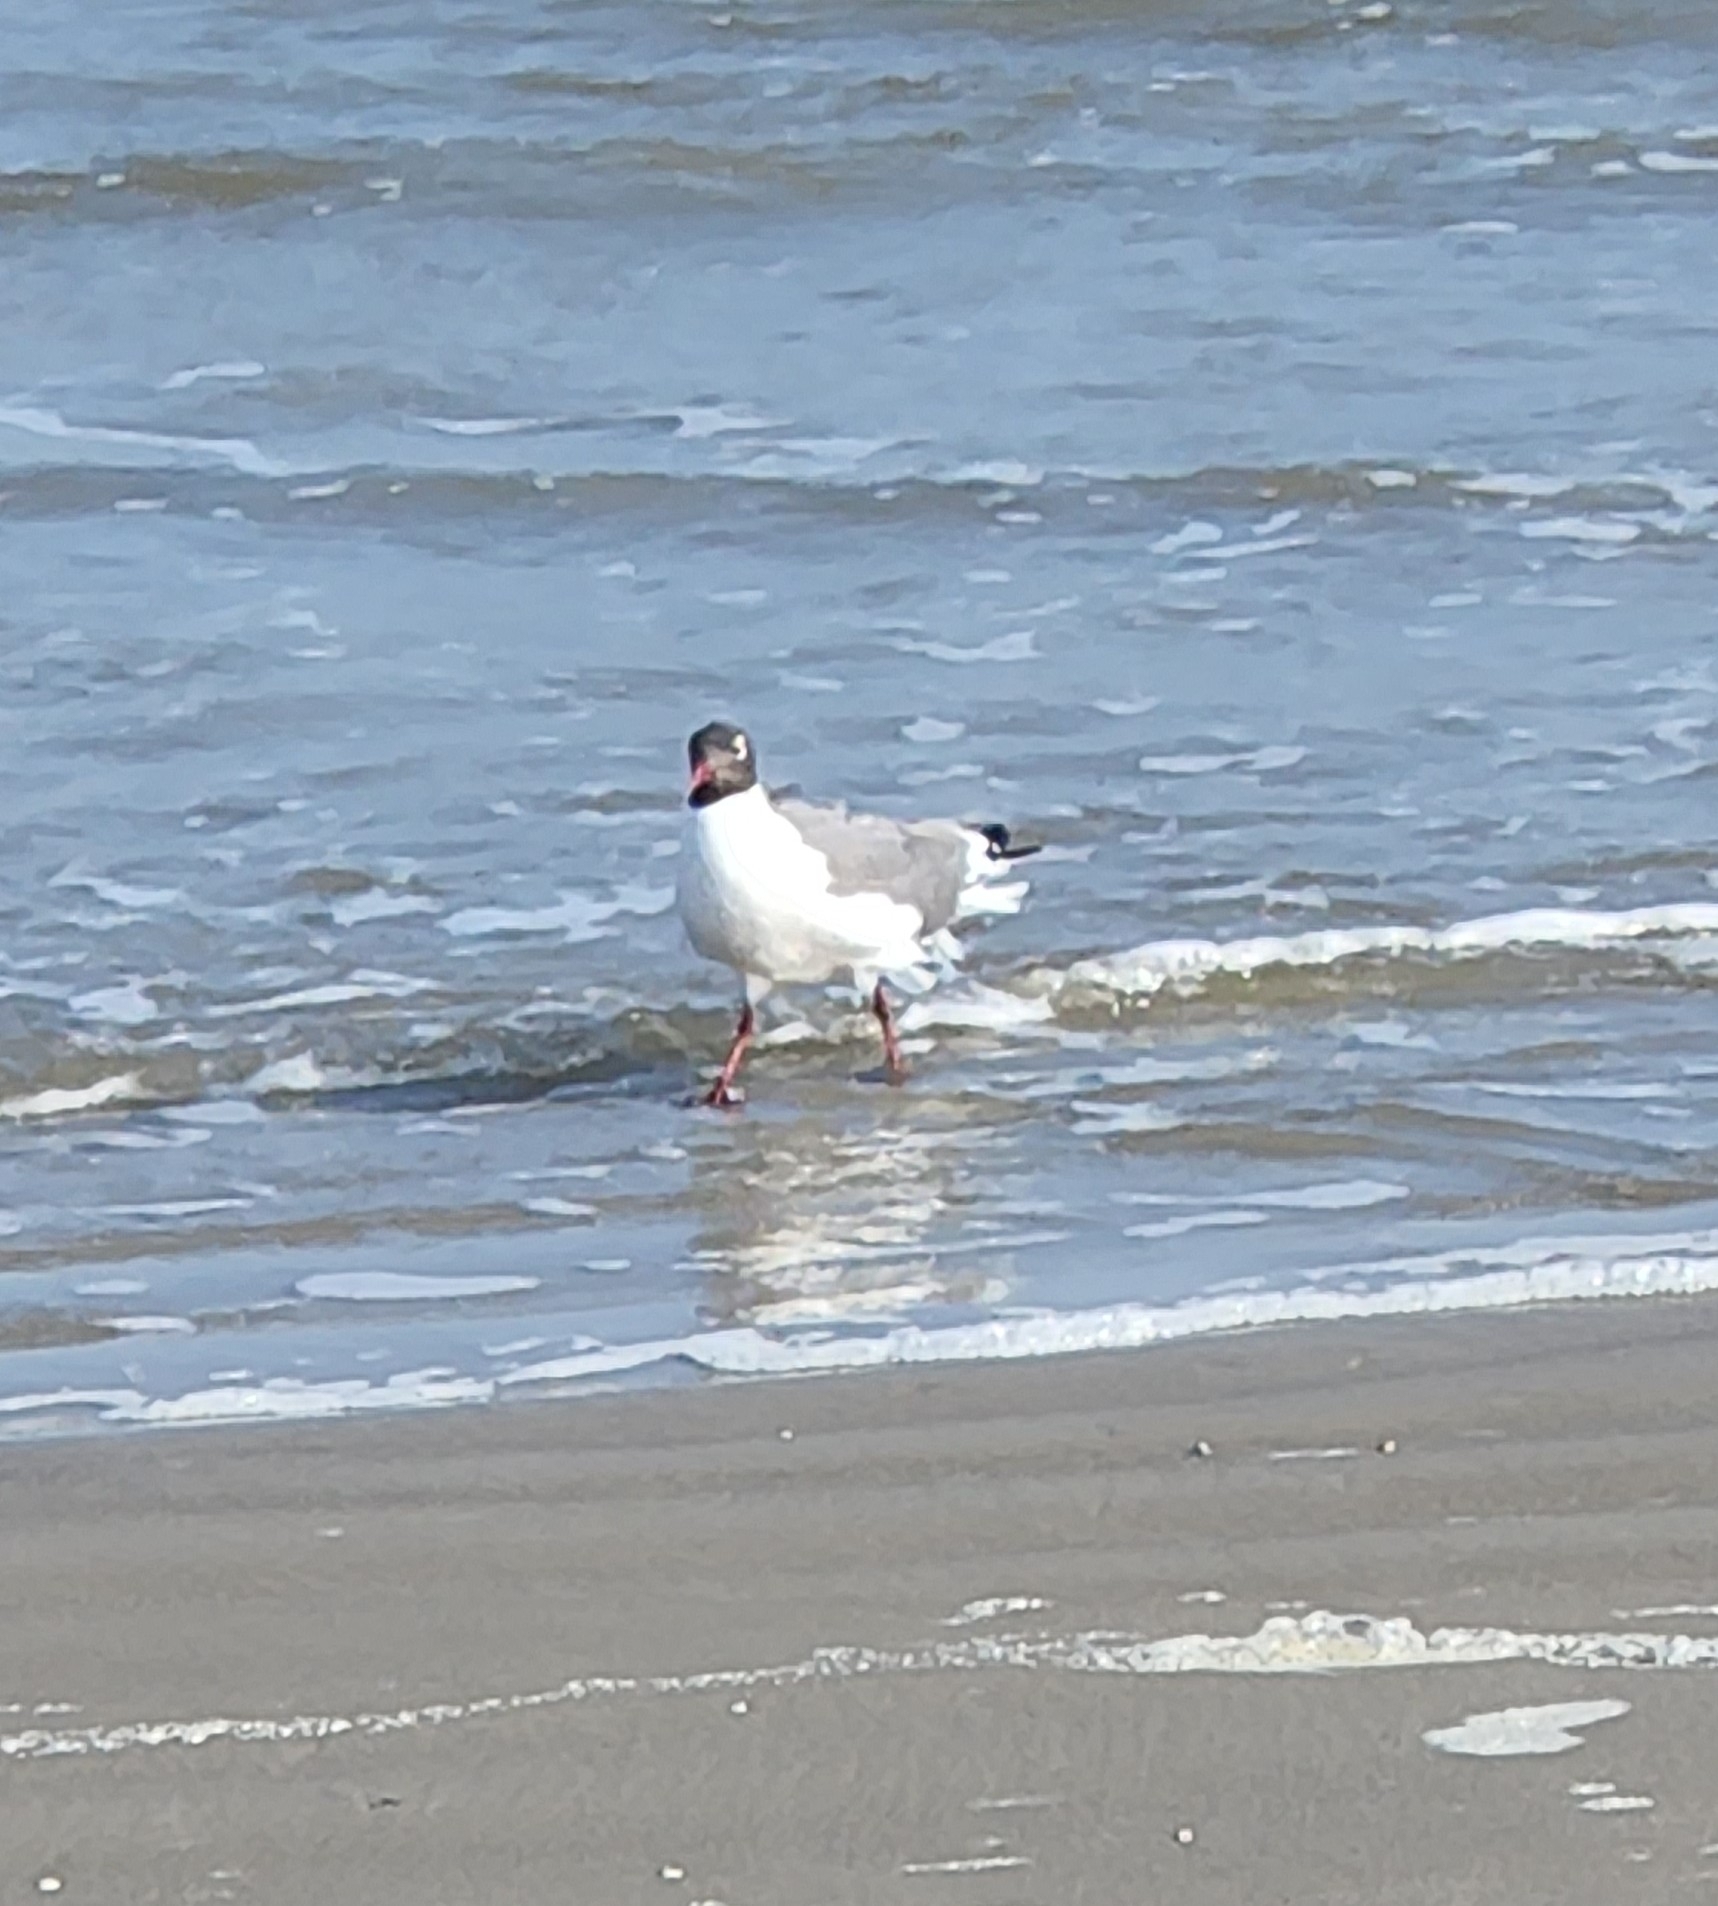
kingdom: Animalia
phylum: Chordata
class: Aves
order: Charadriiformes
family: Laridae
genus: Leucophaeus
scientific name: Leucophaeus atricilla
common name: Laughing gull
